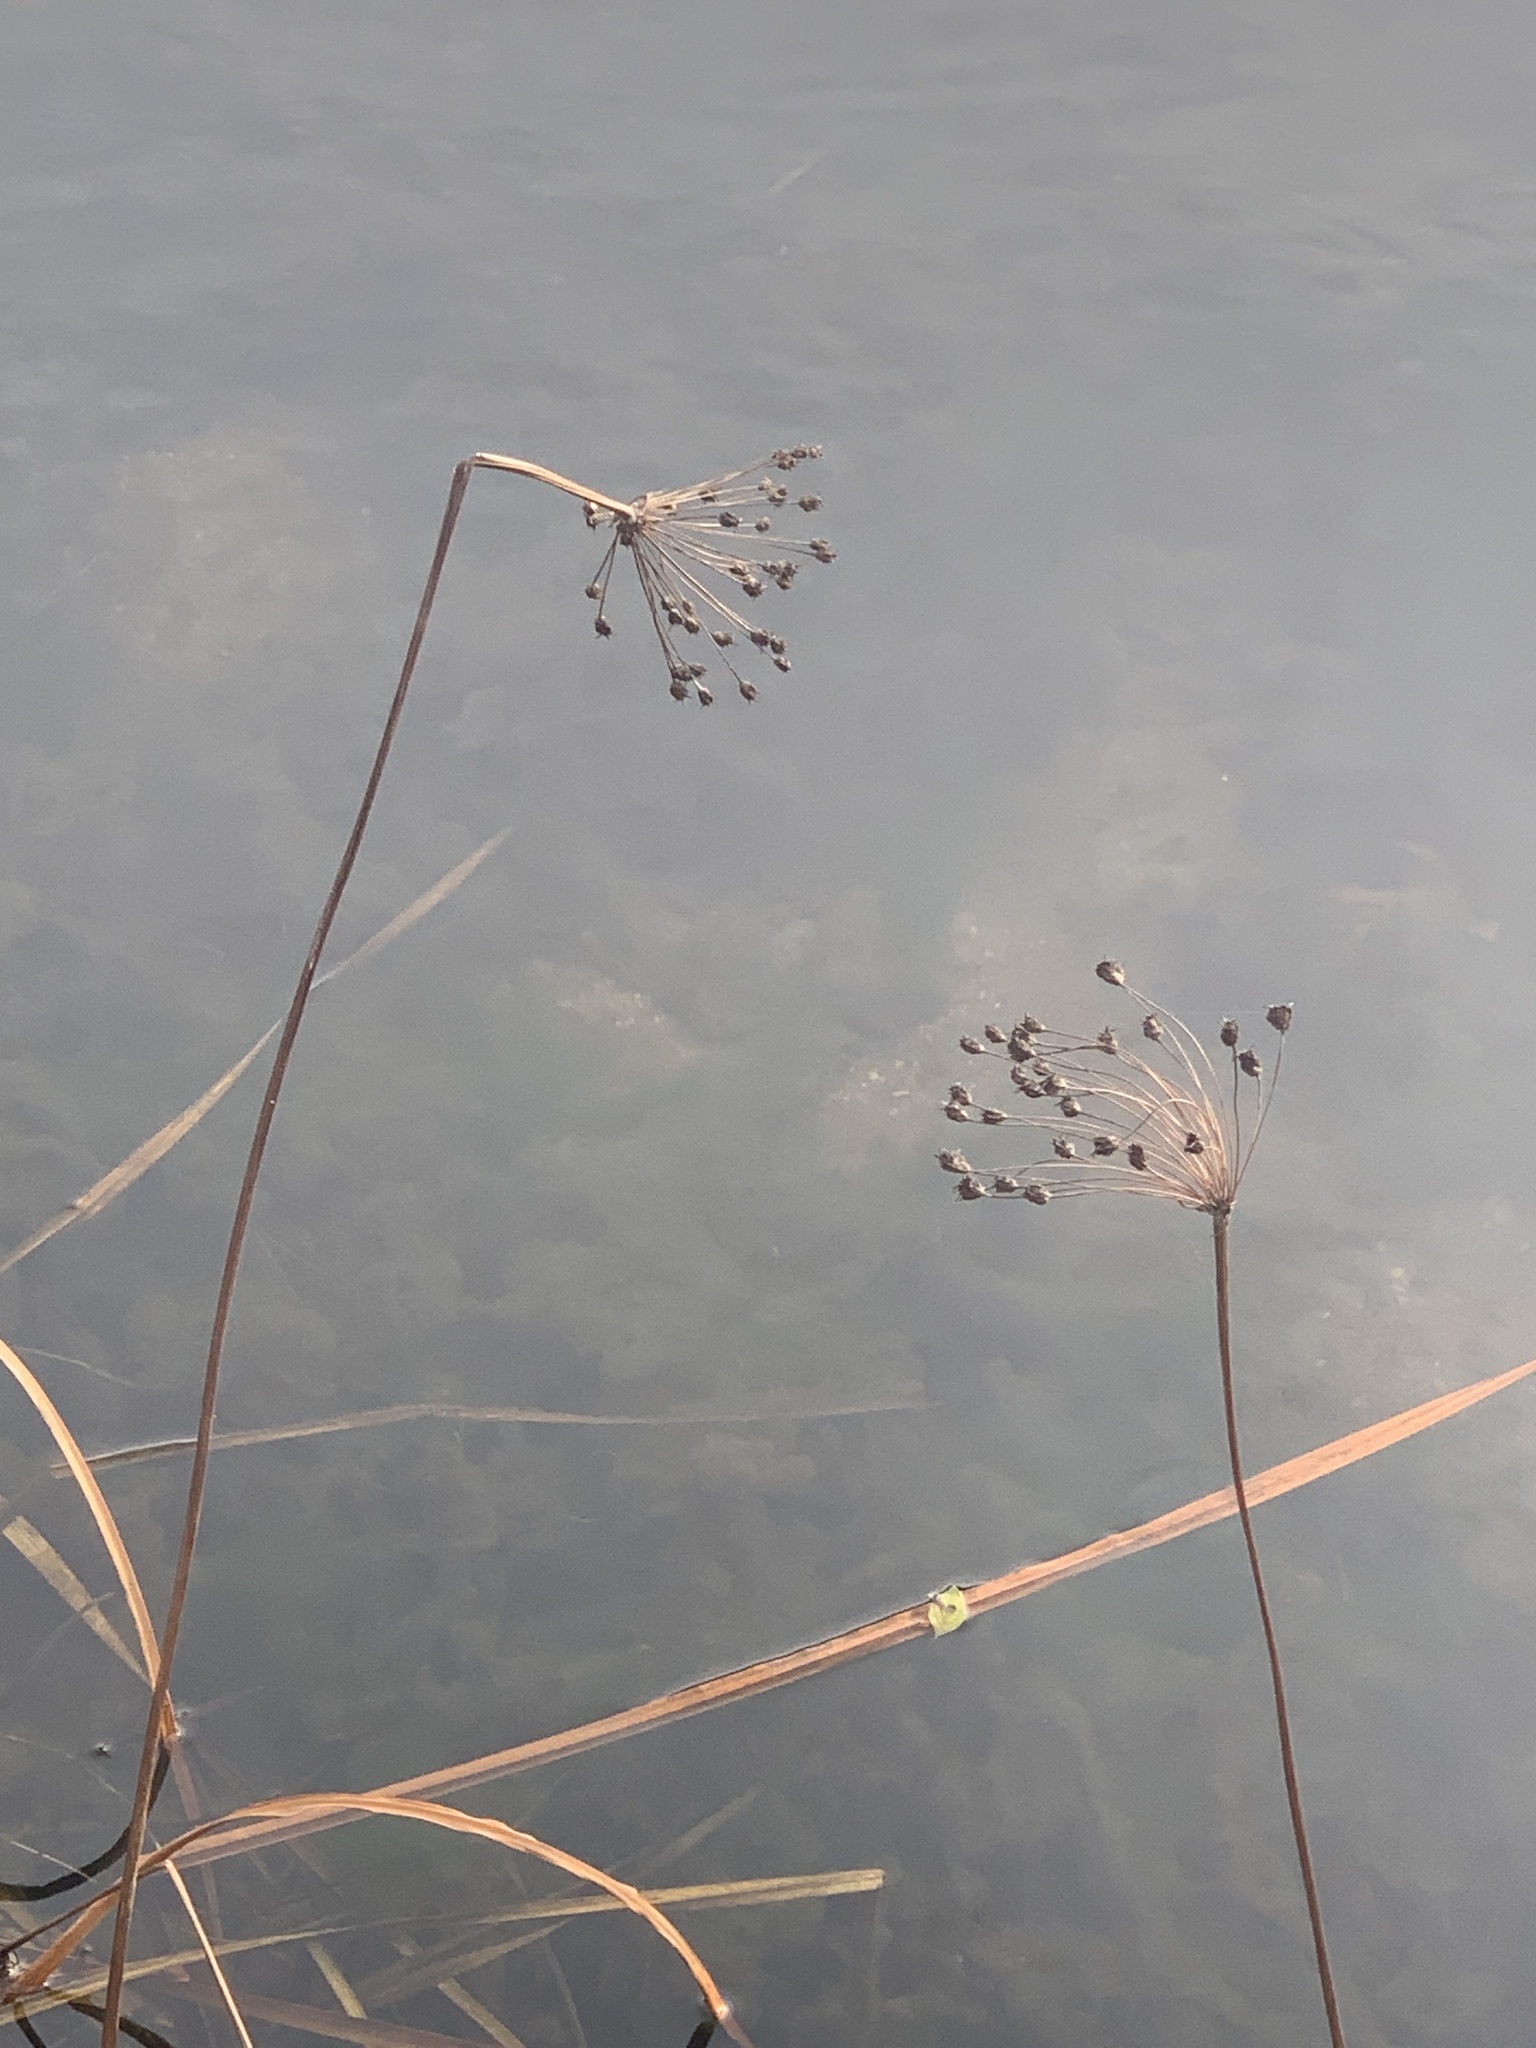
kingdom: Plantae
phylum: Tracheophyta
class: Liliopsida
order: Alismatales
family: Butomaceae
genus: Butomus
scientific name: Butomus umbellatus
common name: Flowering-rush
